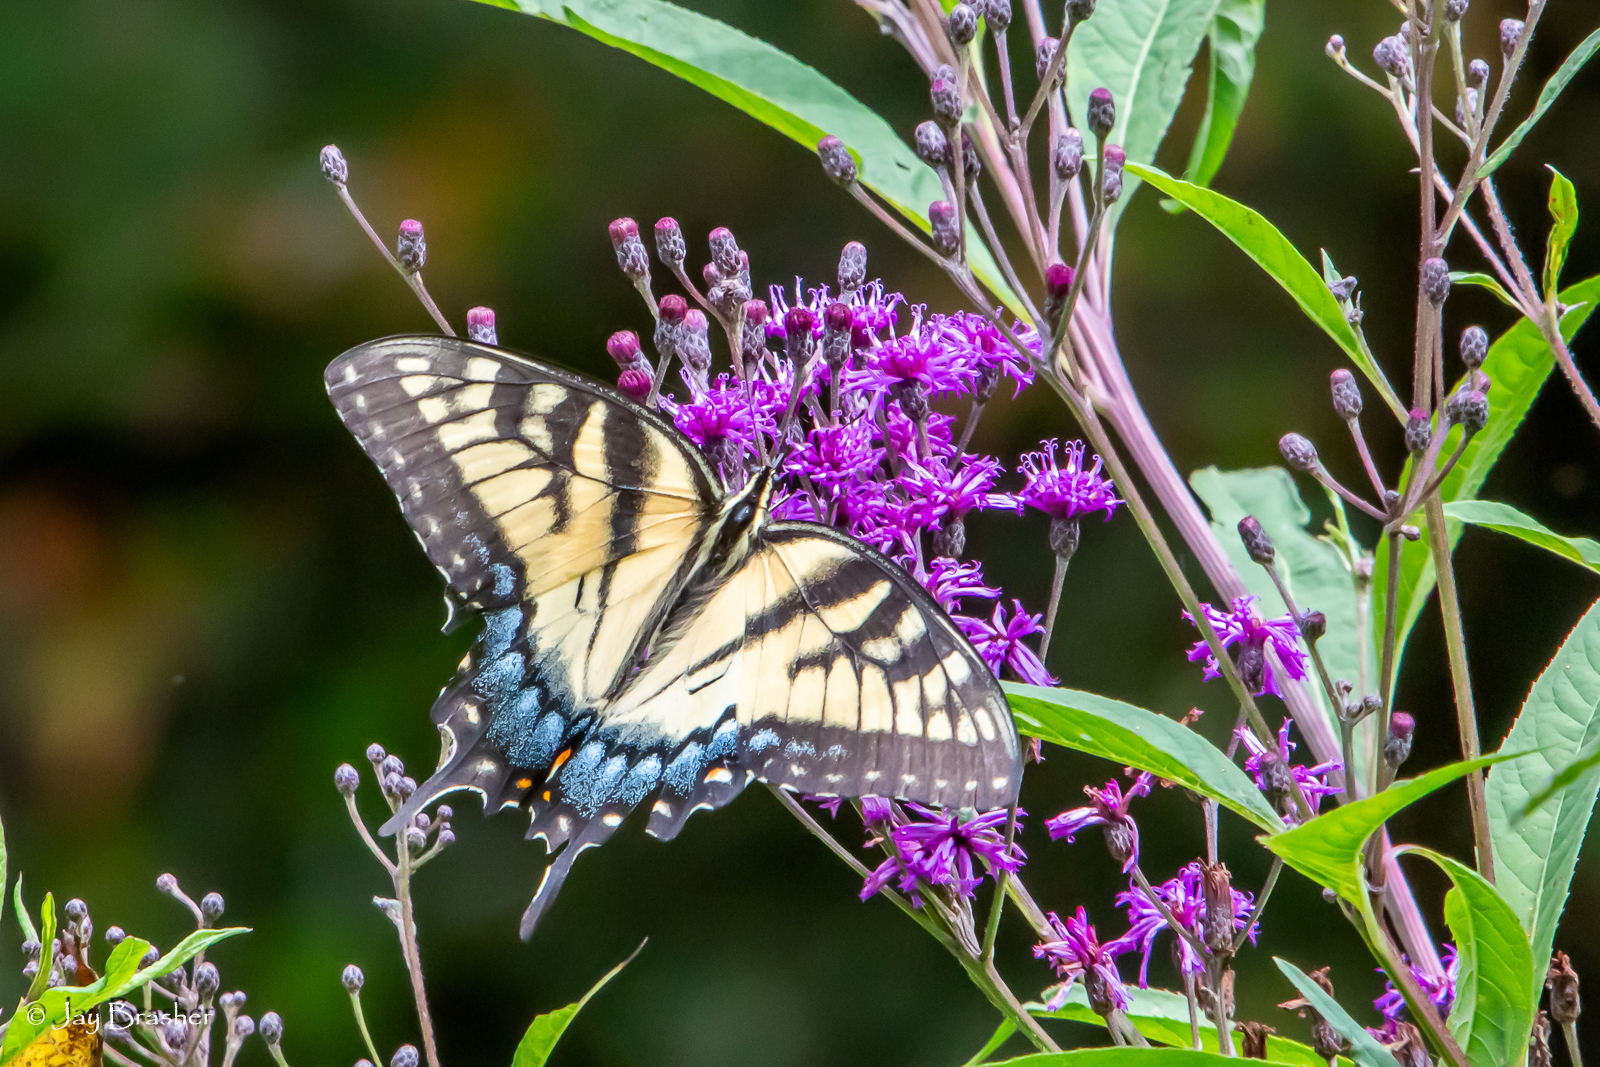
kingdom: Animalia
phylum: Arthropoda
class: Insecta
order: Lepidoptera
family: Papilionidae
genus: Papilio
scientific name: Papilio glaucus
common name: Tiger swallowtail
